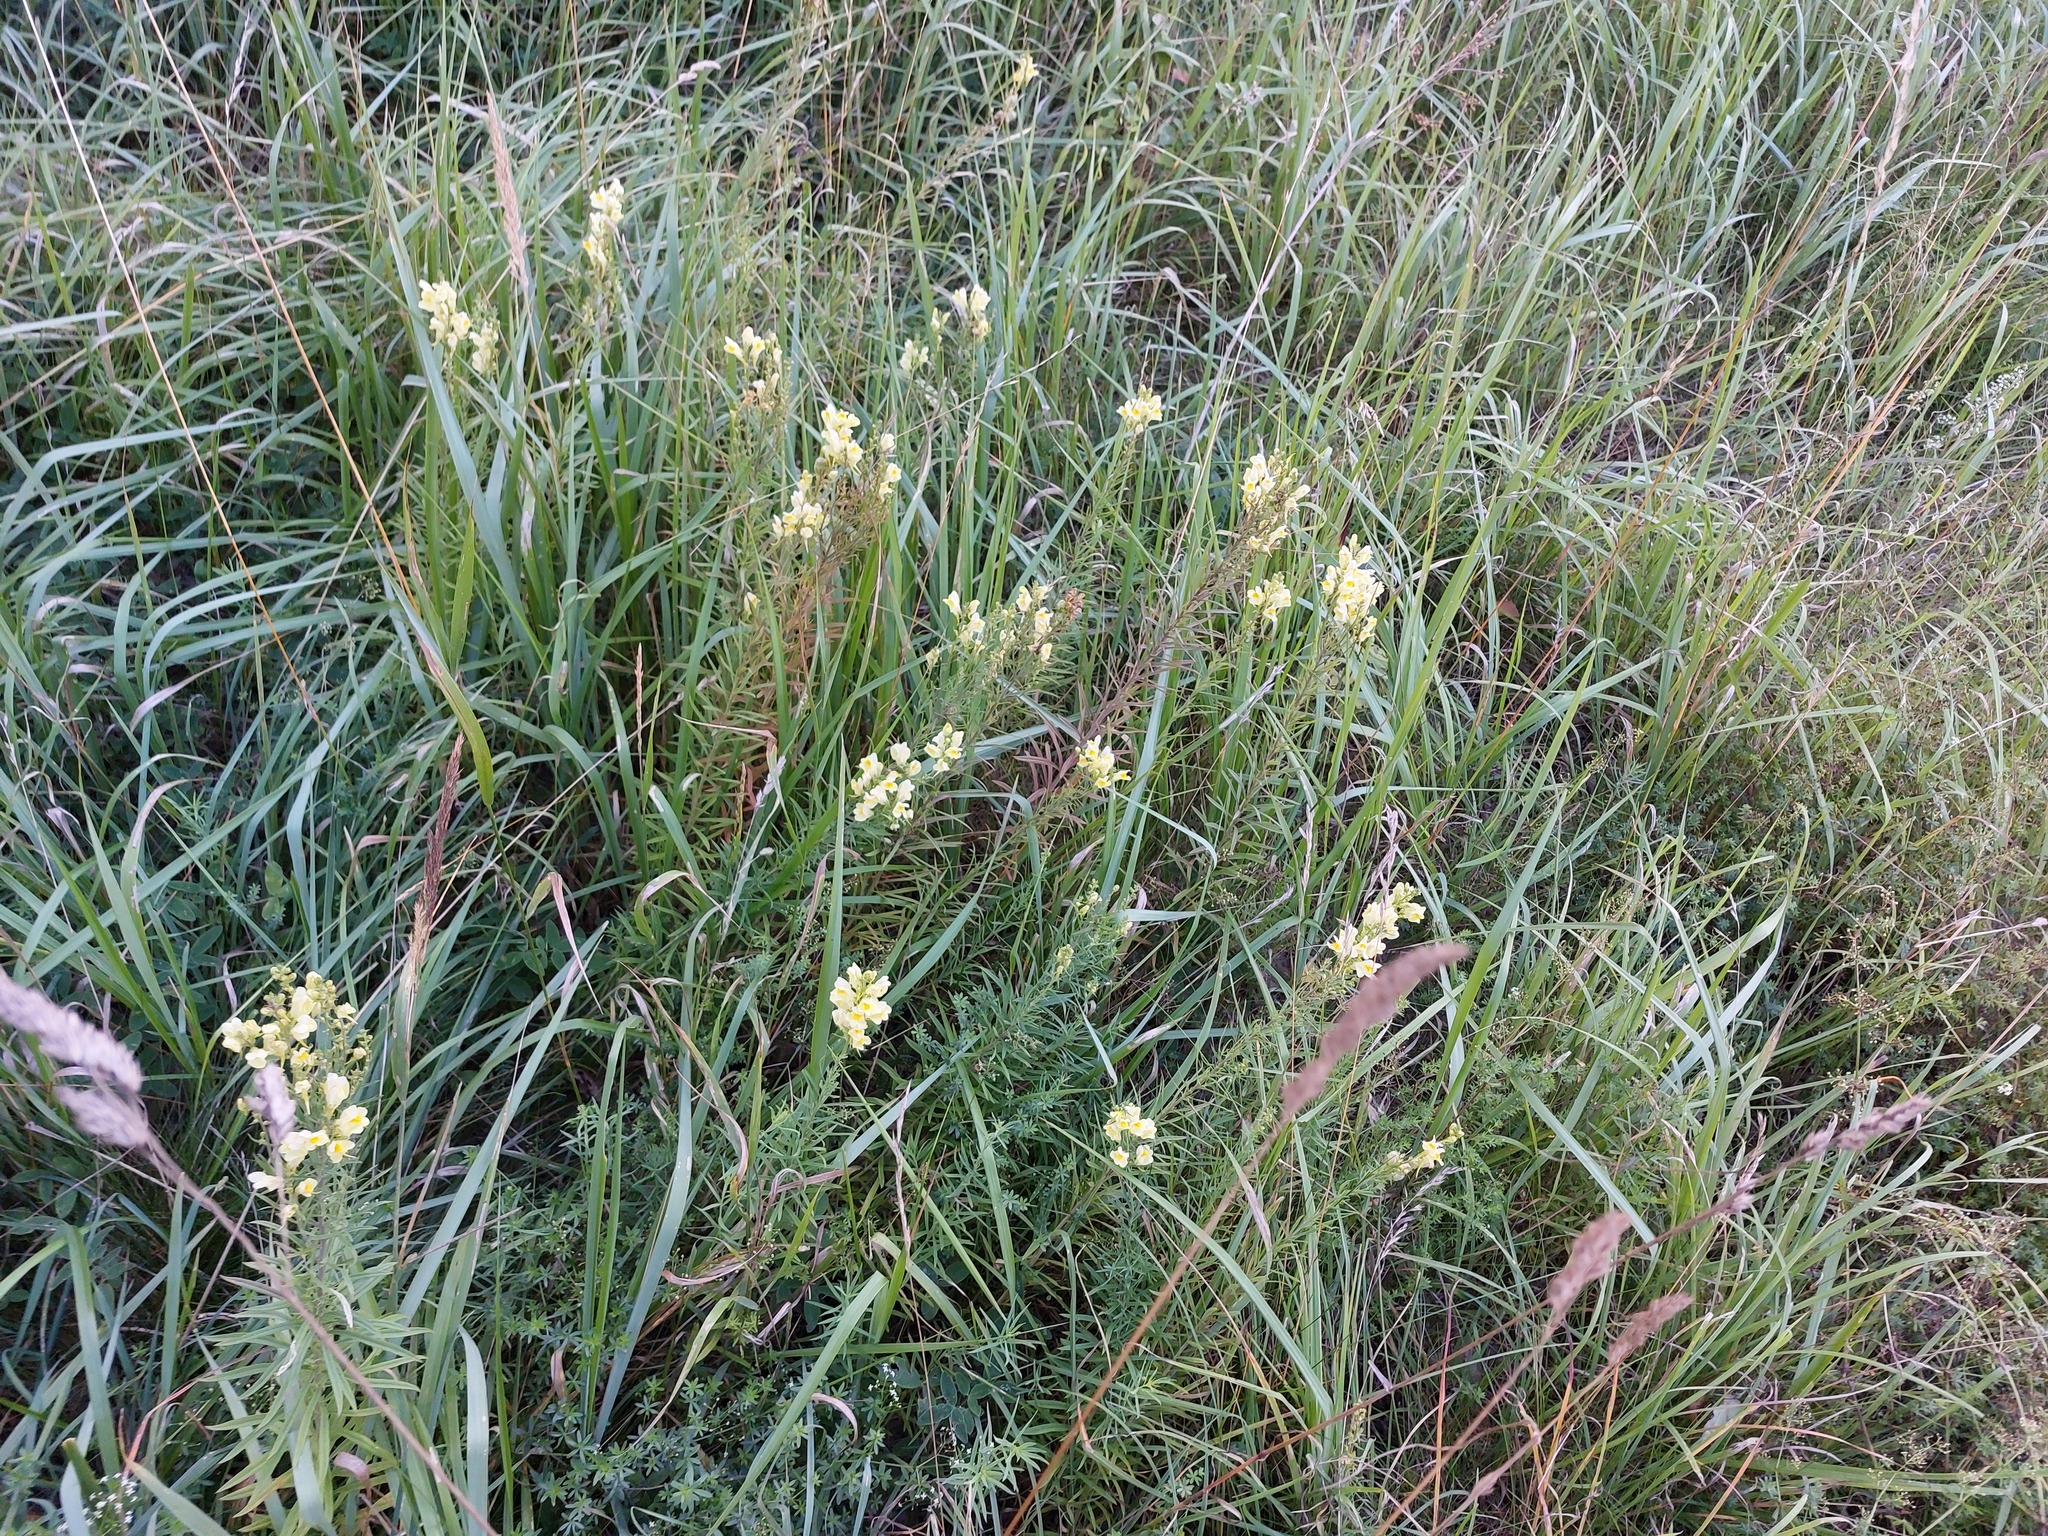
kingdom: Plantae
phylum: Tracheophyta
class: Magnoliopsida
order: Lamiales
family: Plantaginaceae
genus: Linaria
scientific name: Linaria vulgaris
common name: Butter and eggs
